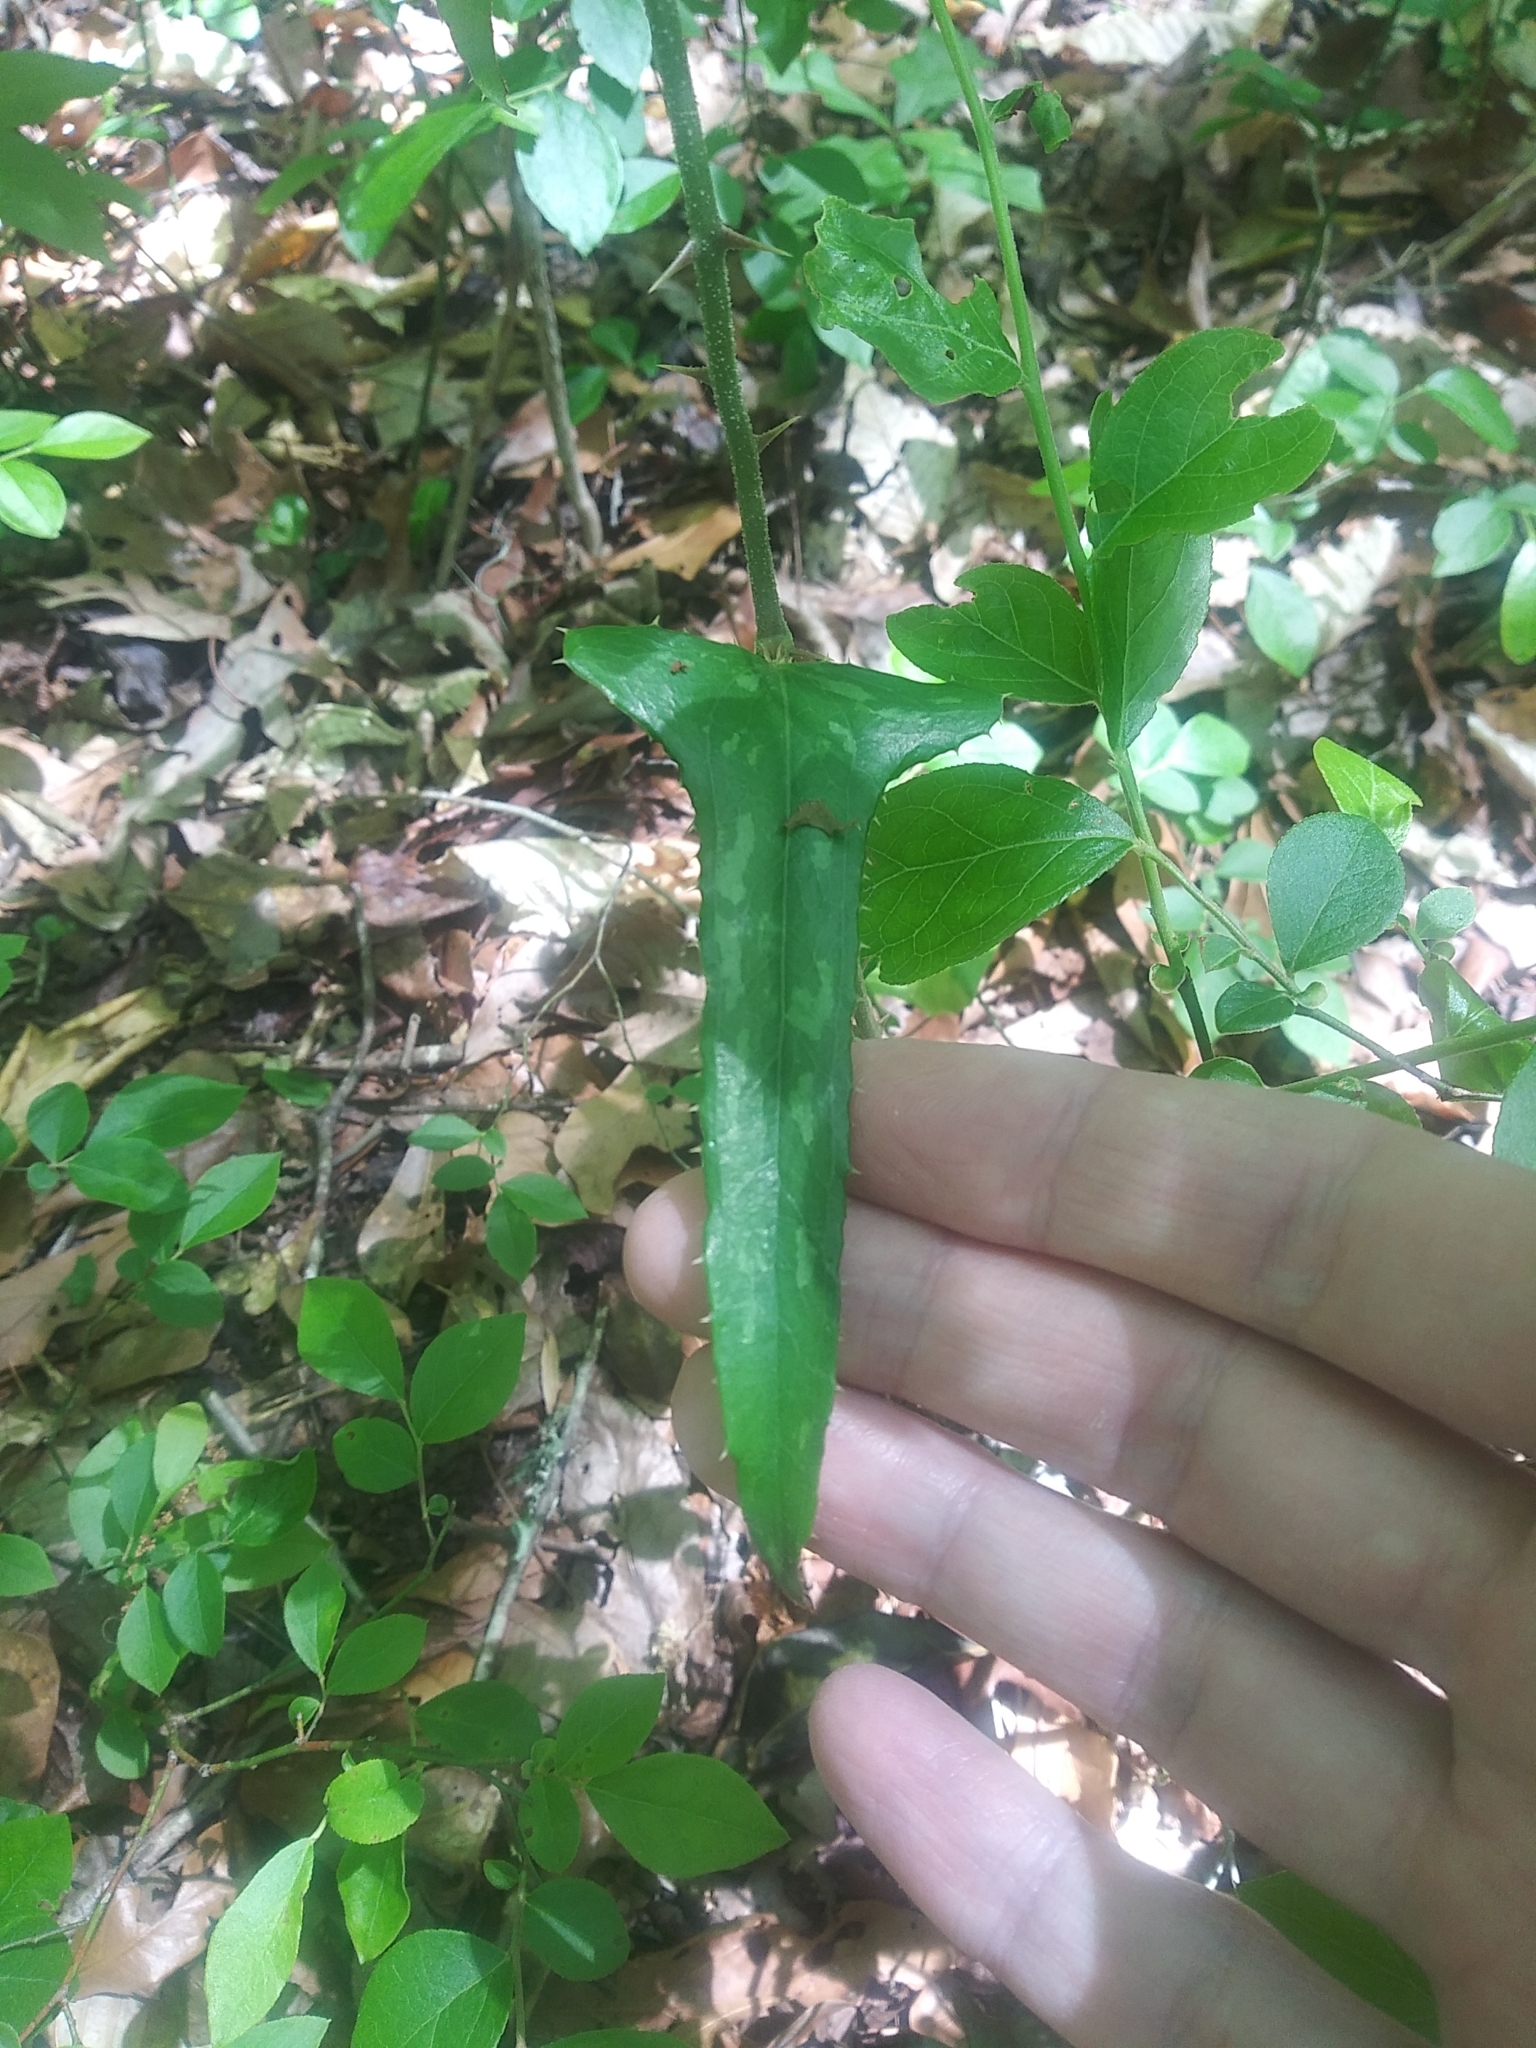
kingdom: Plantae
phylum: Tracheophyta
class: Liliopsida
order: Liliales
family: Smilacaceae
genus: Smilax
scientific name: Smilax bona-nox
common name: Catbrier
